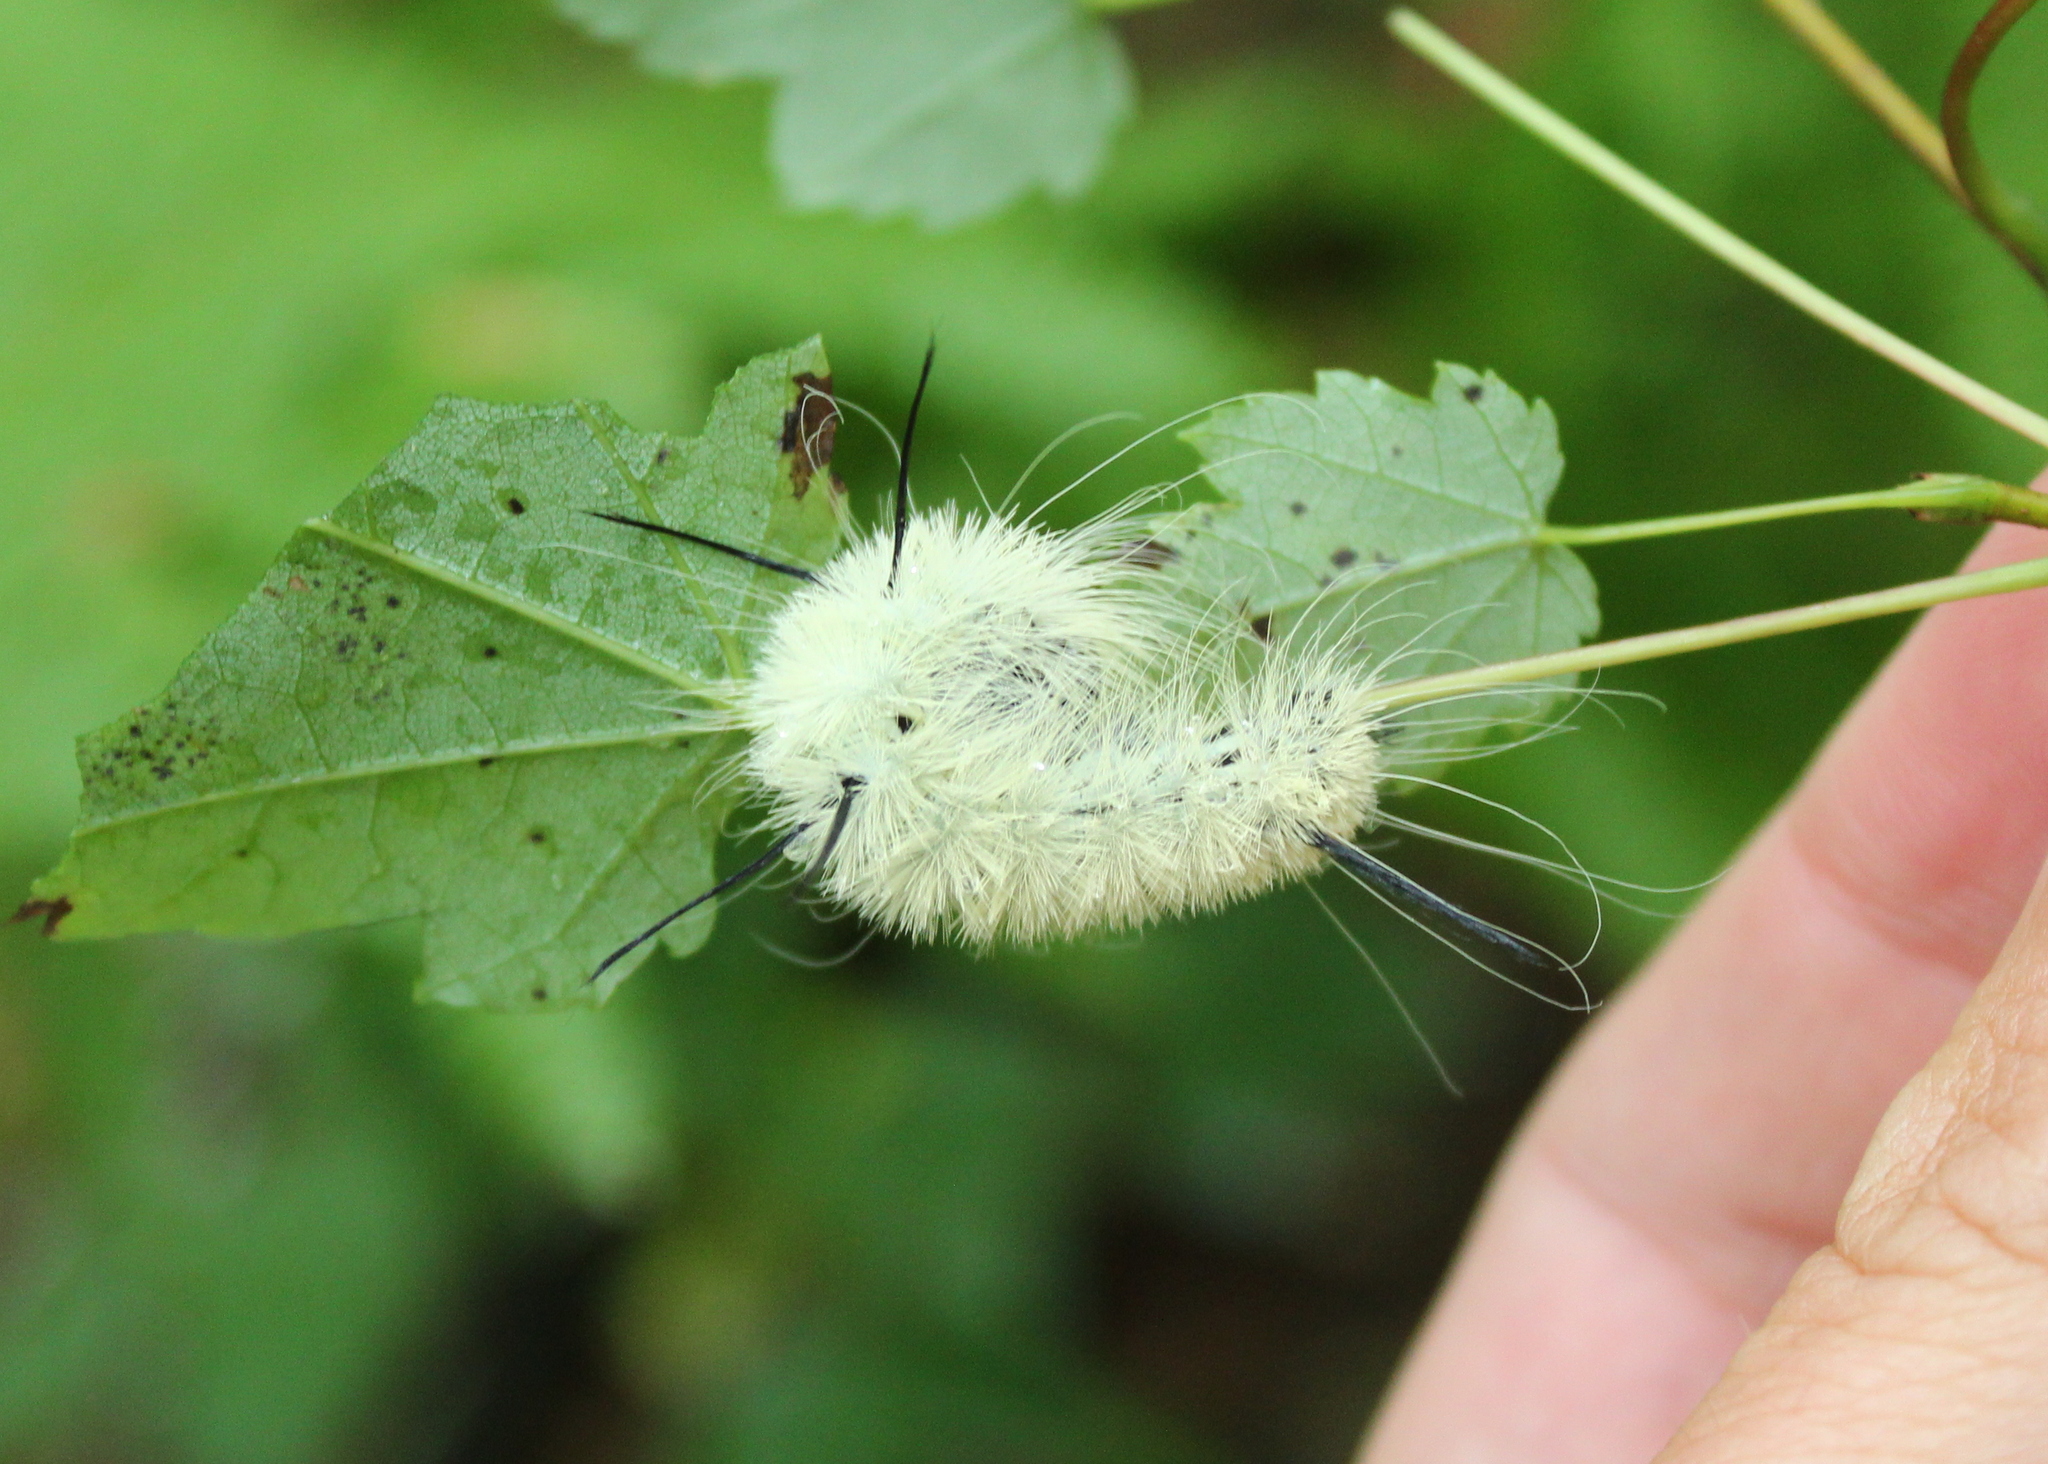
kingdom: Animalia
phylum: Arthropoda
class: Insecta
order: Lepidoptera
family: Noctuidae
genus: Acronicta
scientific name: Acronicta americana
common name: American dagger
